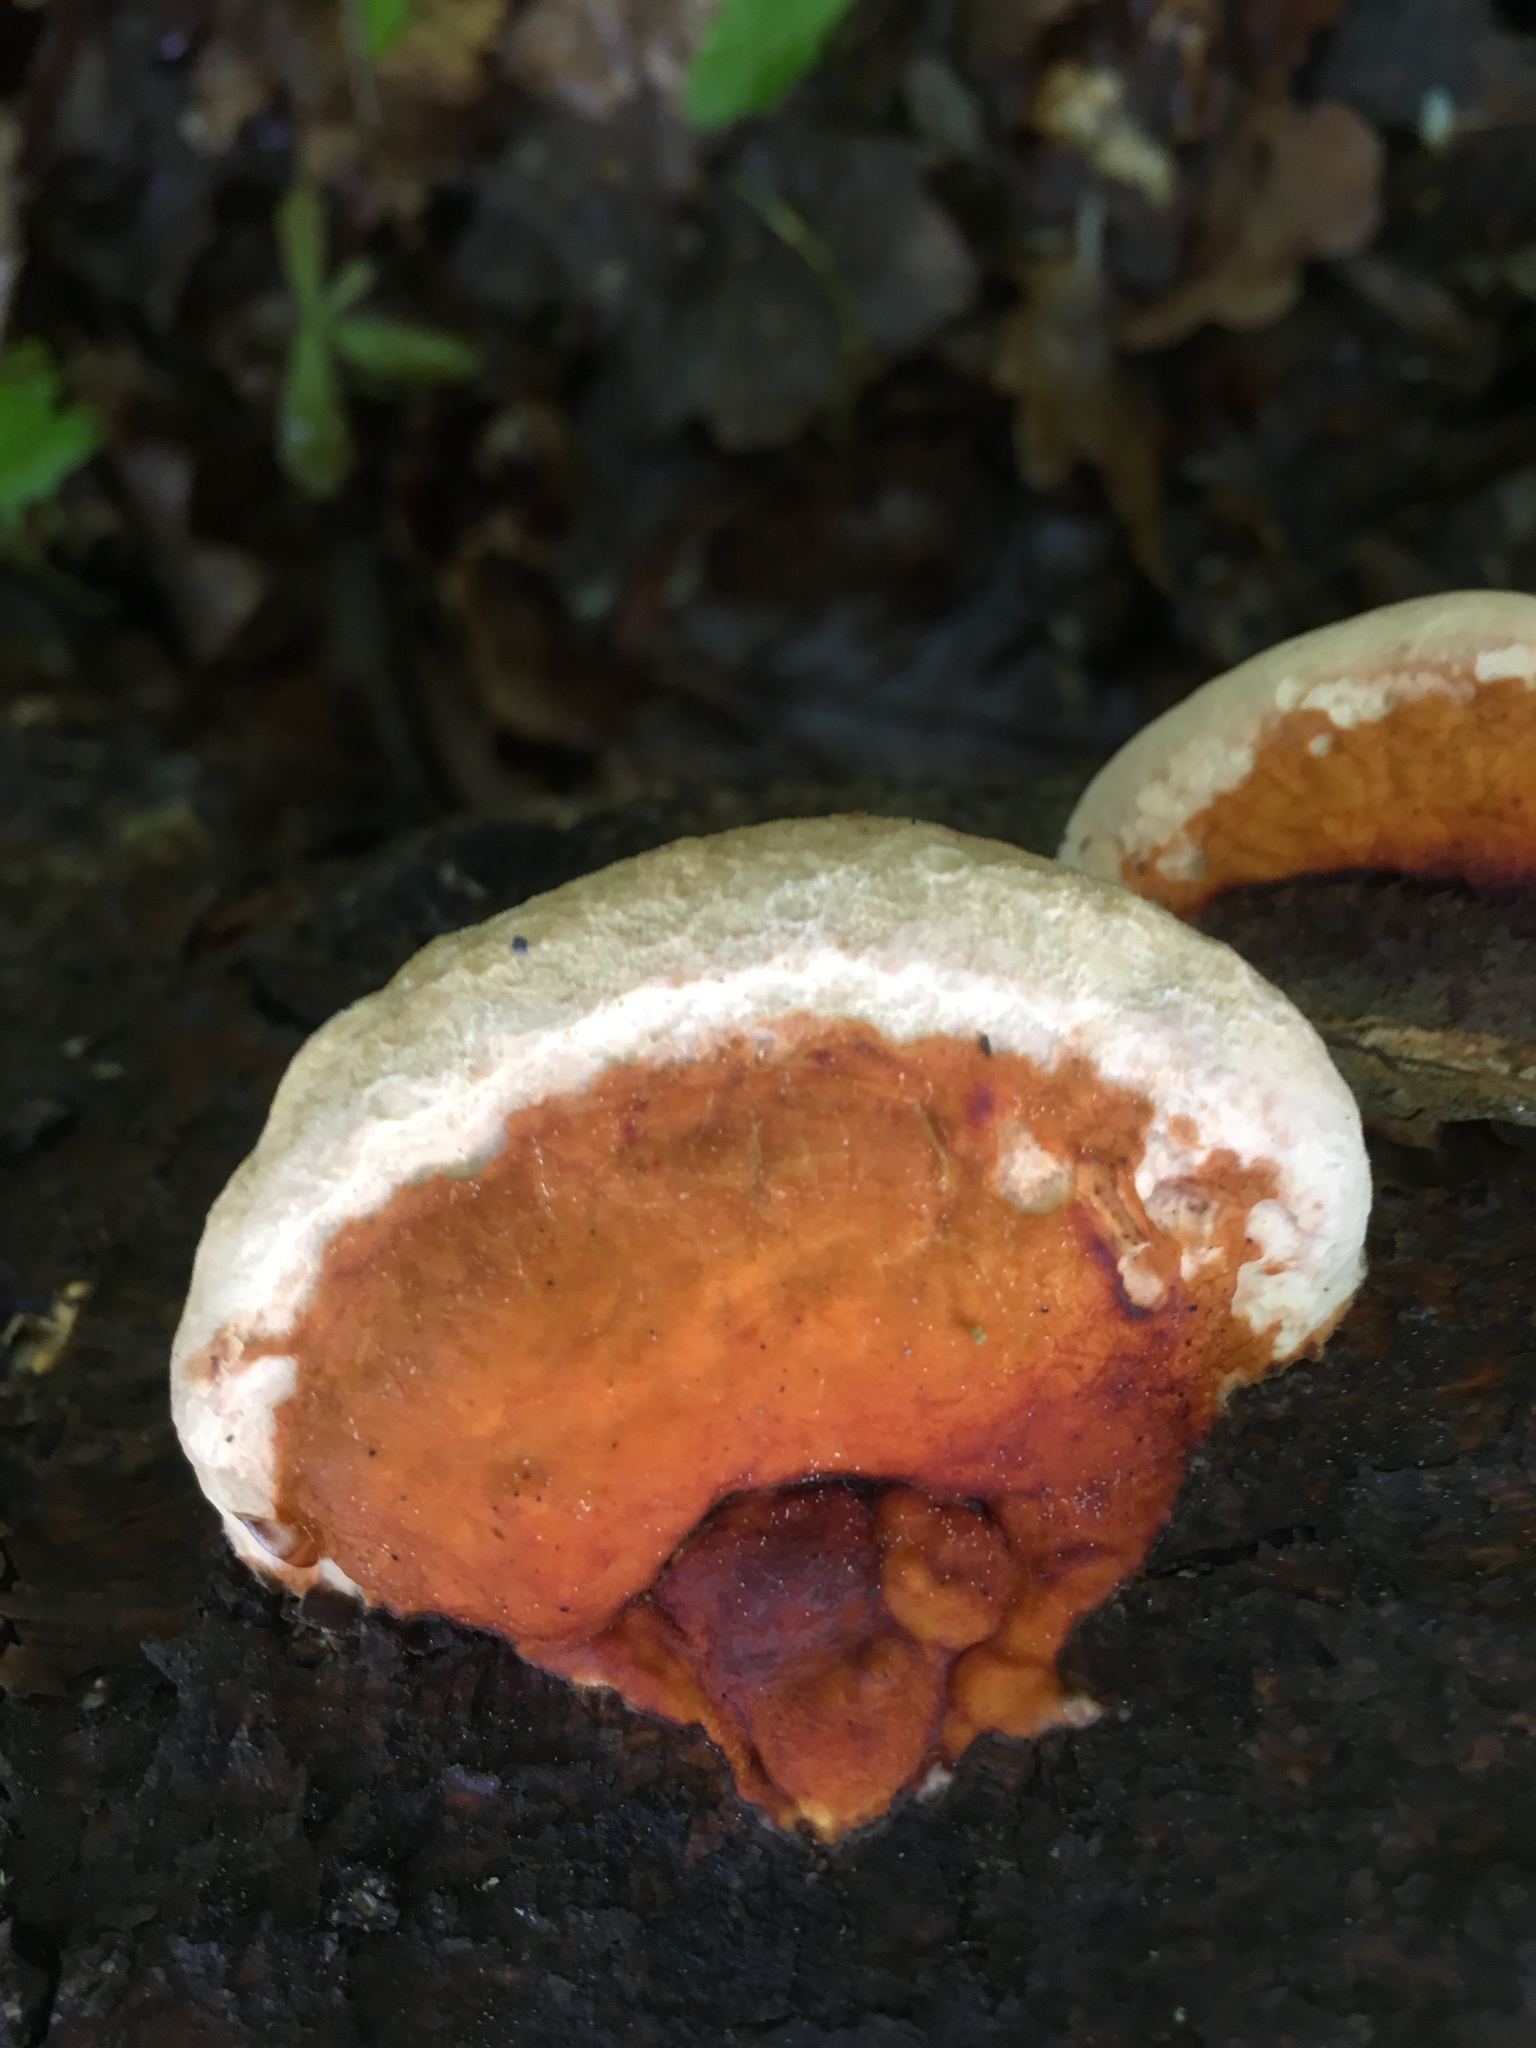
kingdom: Fungi
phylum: Basidiomycota
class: Agaricomycetes
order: Polyporales
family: Fomitopsidaceae
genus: Fomitopsis
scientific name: Fomitopsis pinicola
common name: Red-belted bracket
